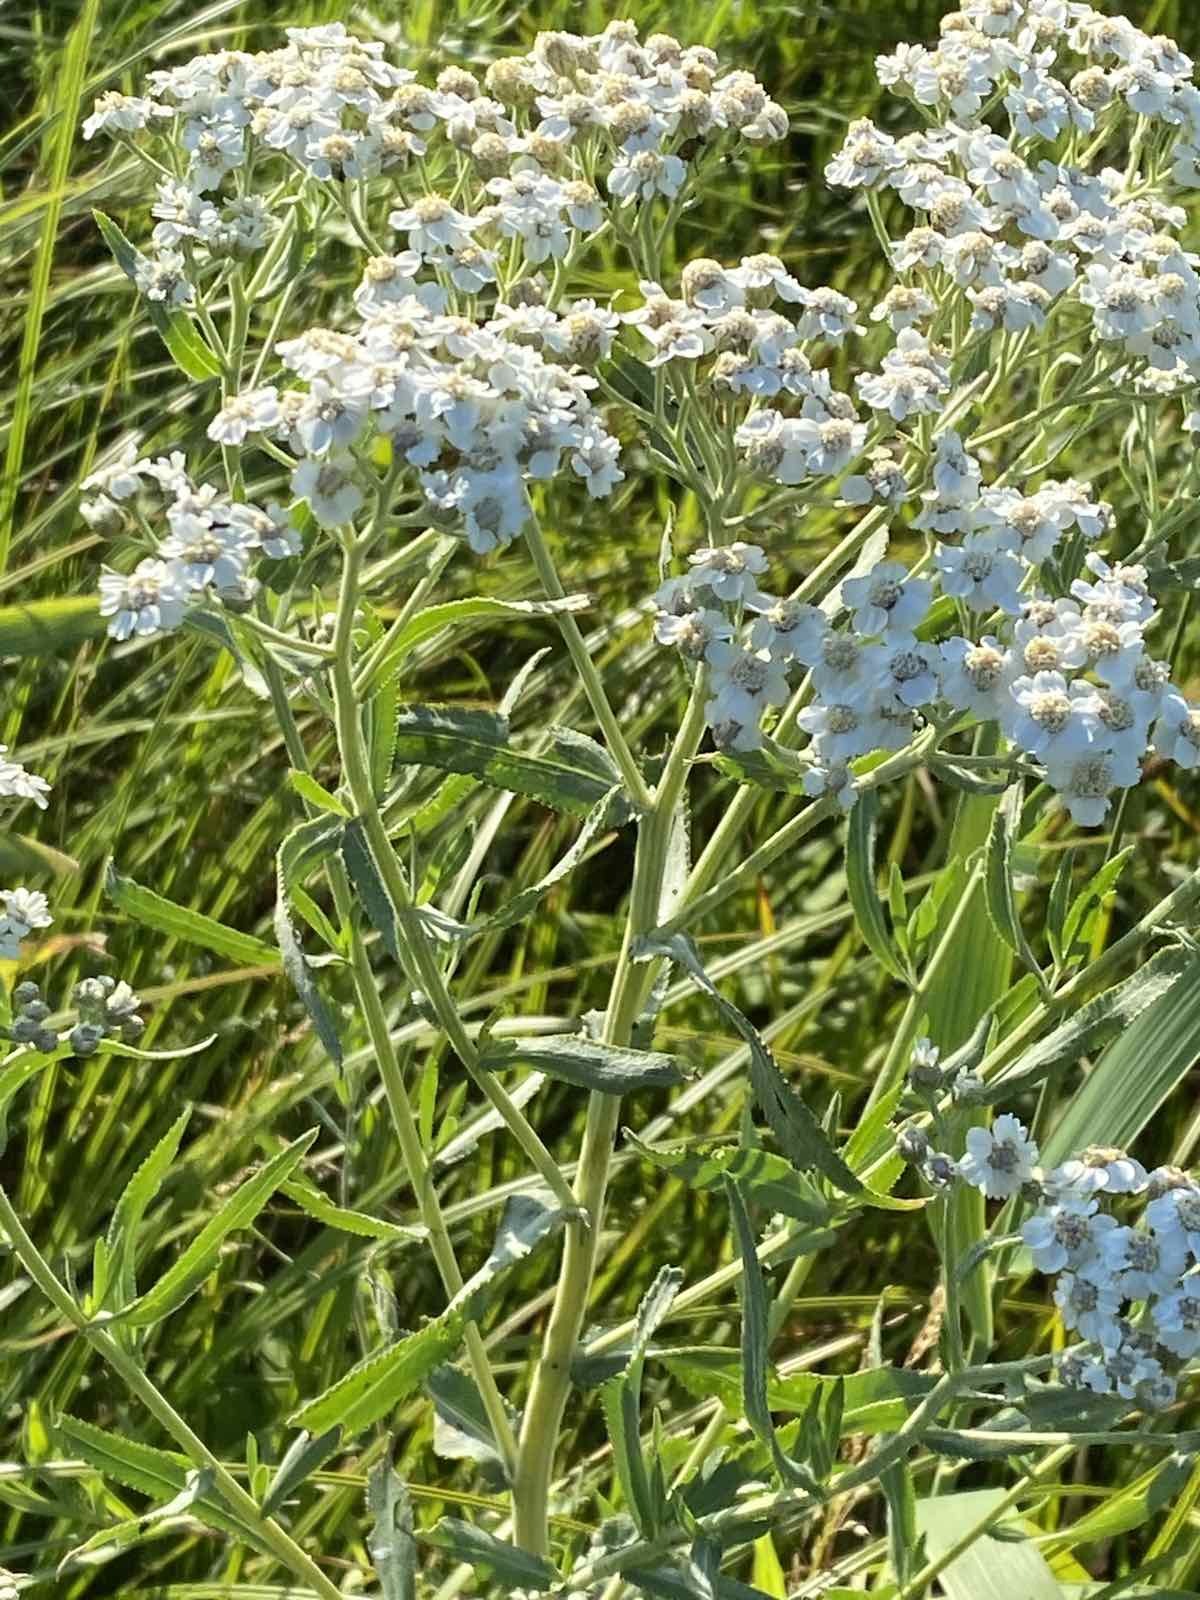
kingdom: Plantae
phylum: Tracheophyta
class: Magnoliopsida
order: Asterales
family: Asteraceae
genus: Achillea
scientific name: Achillea salicifolia
